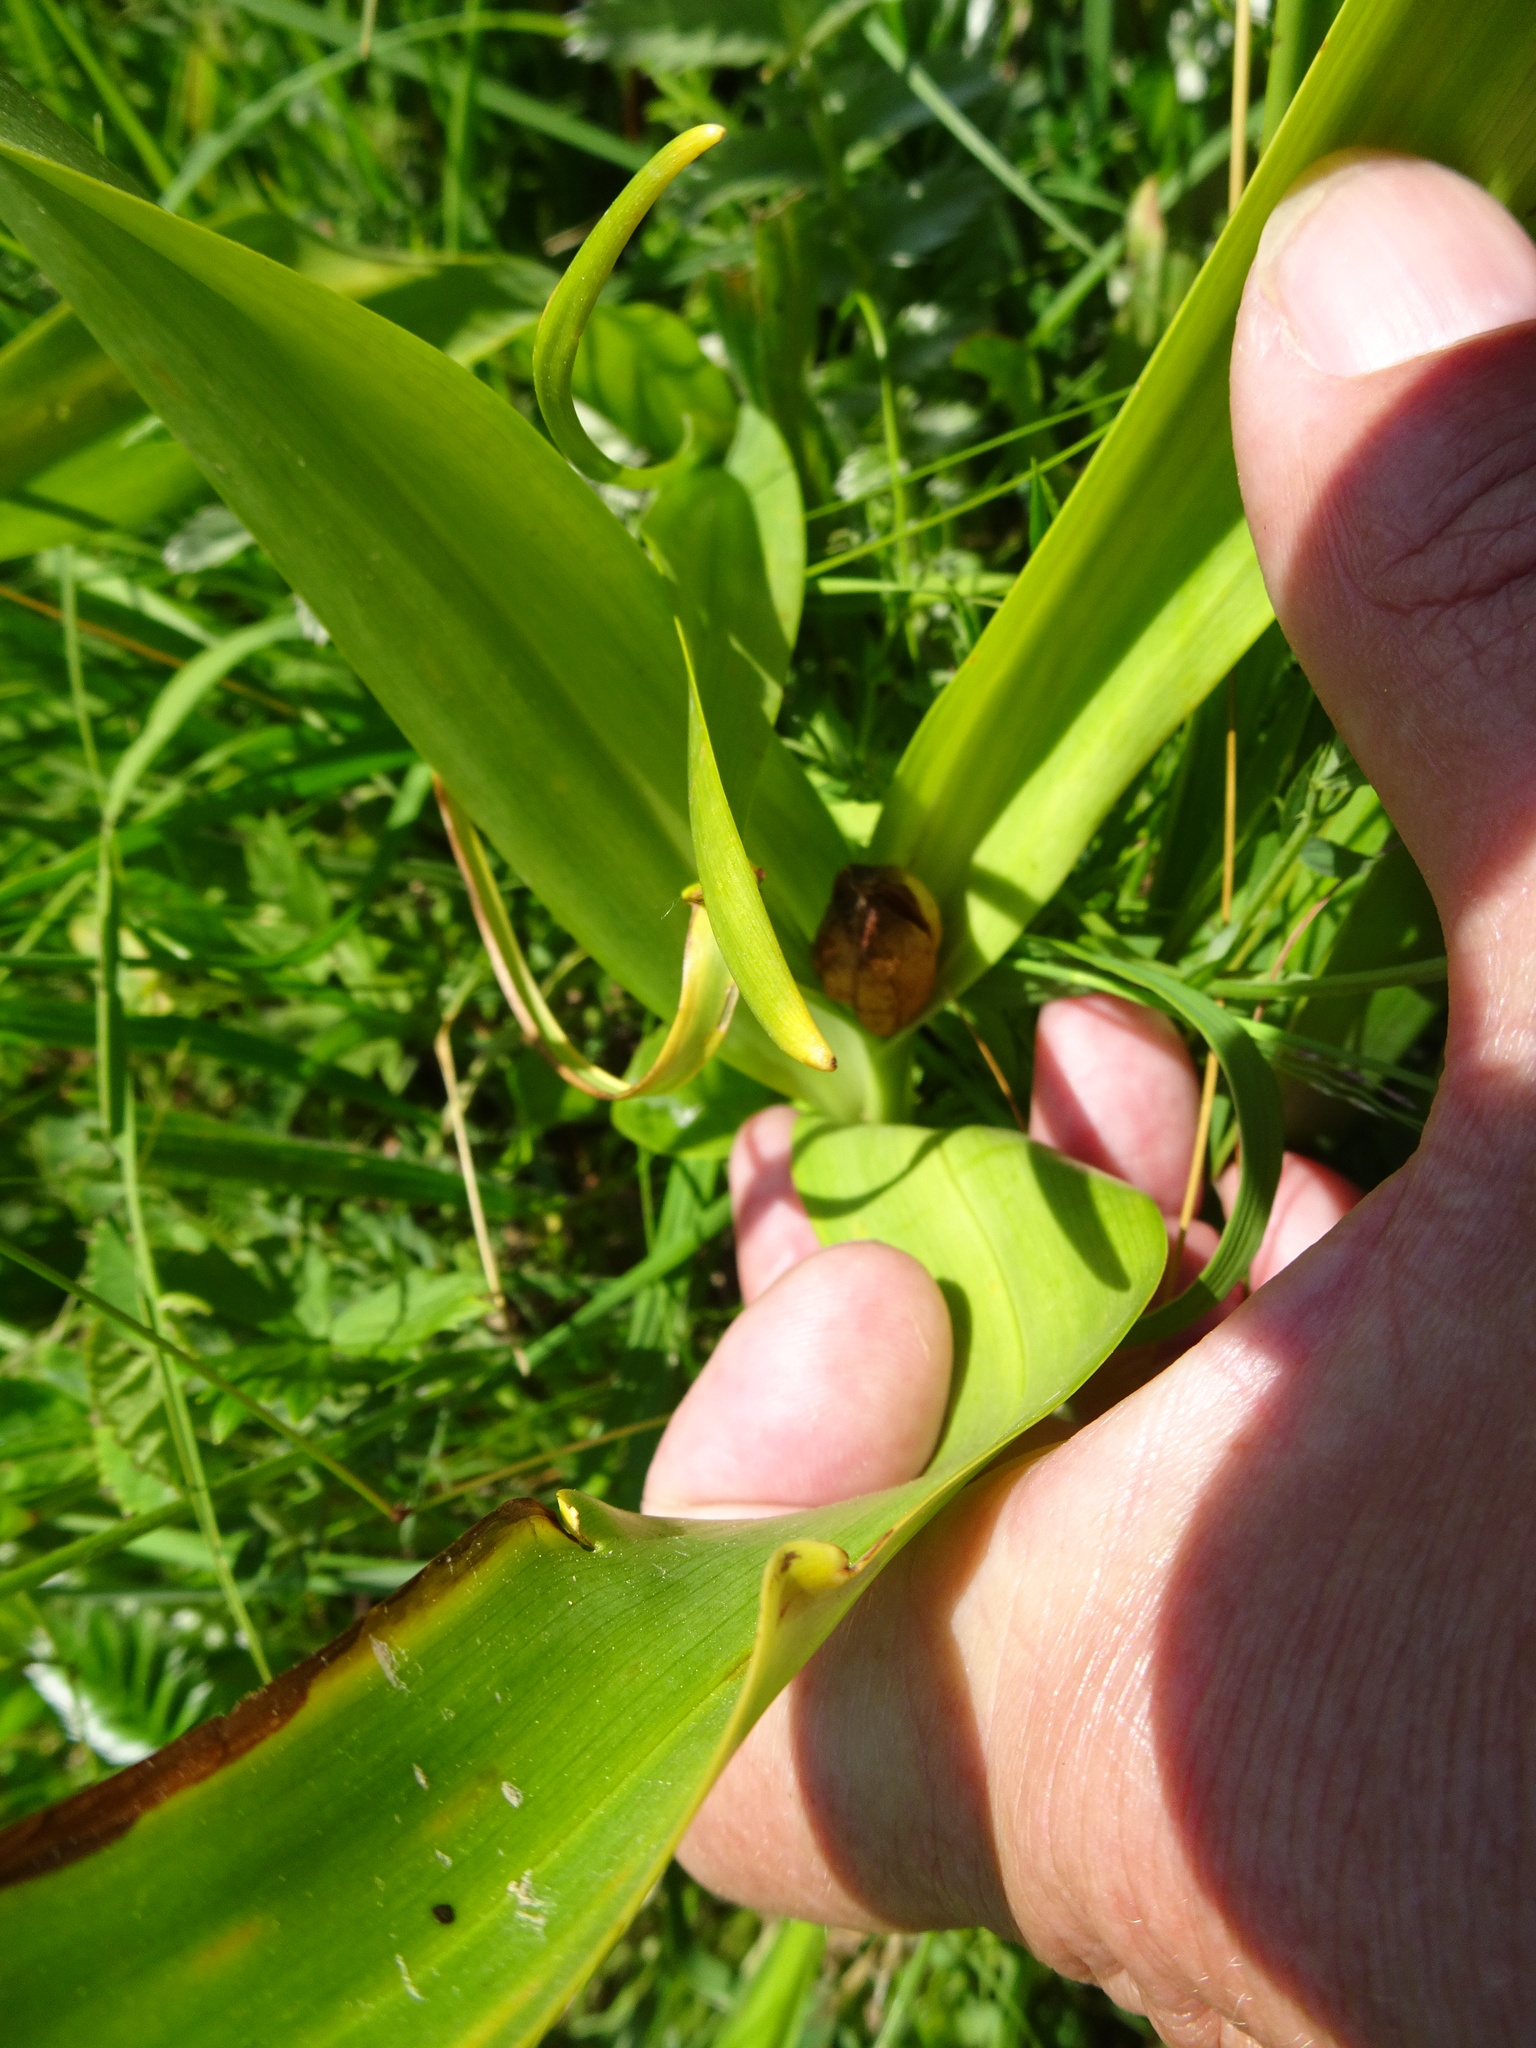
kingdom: Plantae
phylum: Tracheophyta
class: Liliopsida
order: Liliales
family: Colchicaceae
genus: Colchicum
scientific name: Colchicum autumnale
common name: Autumn crocus
